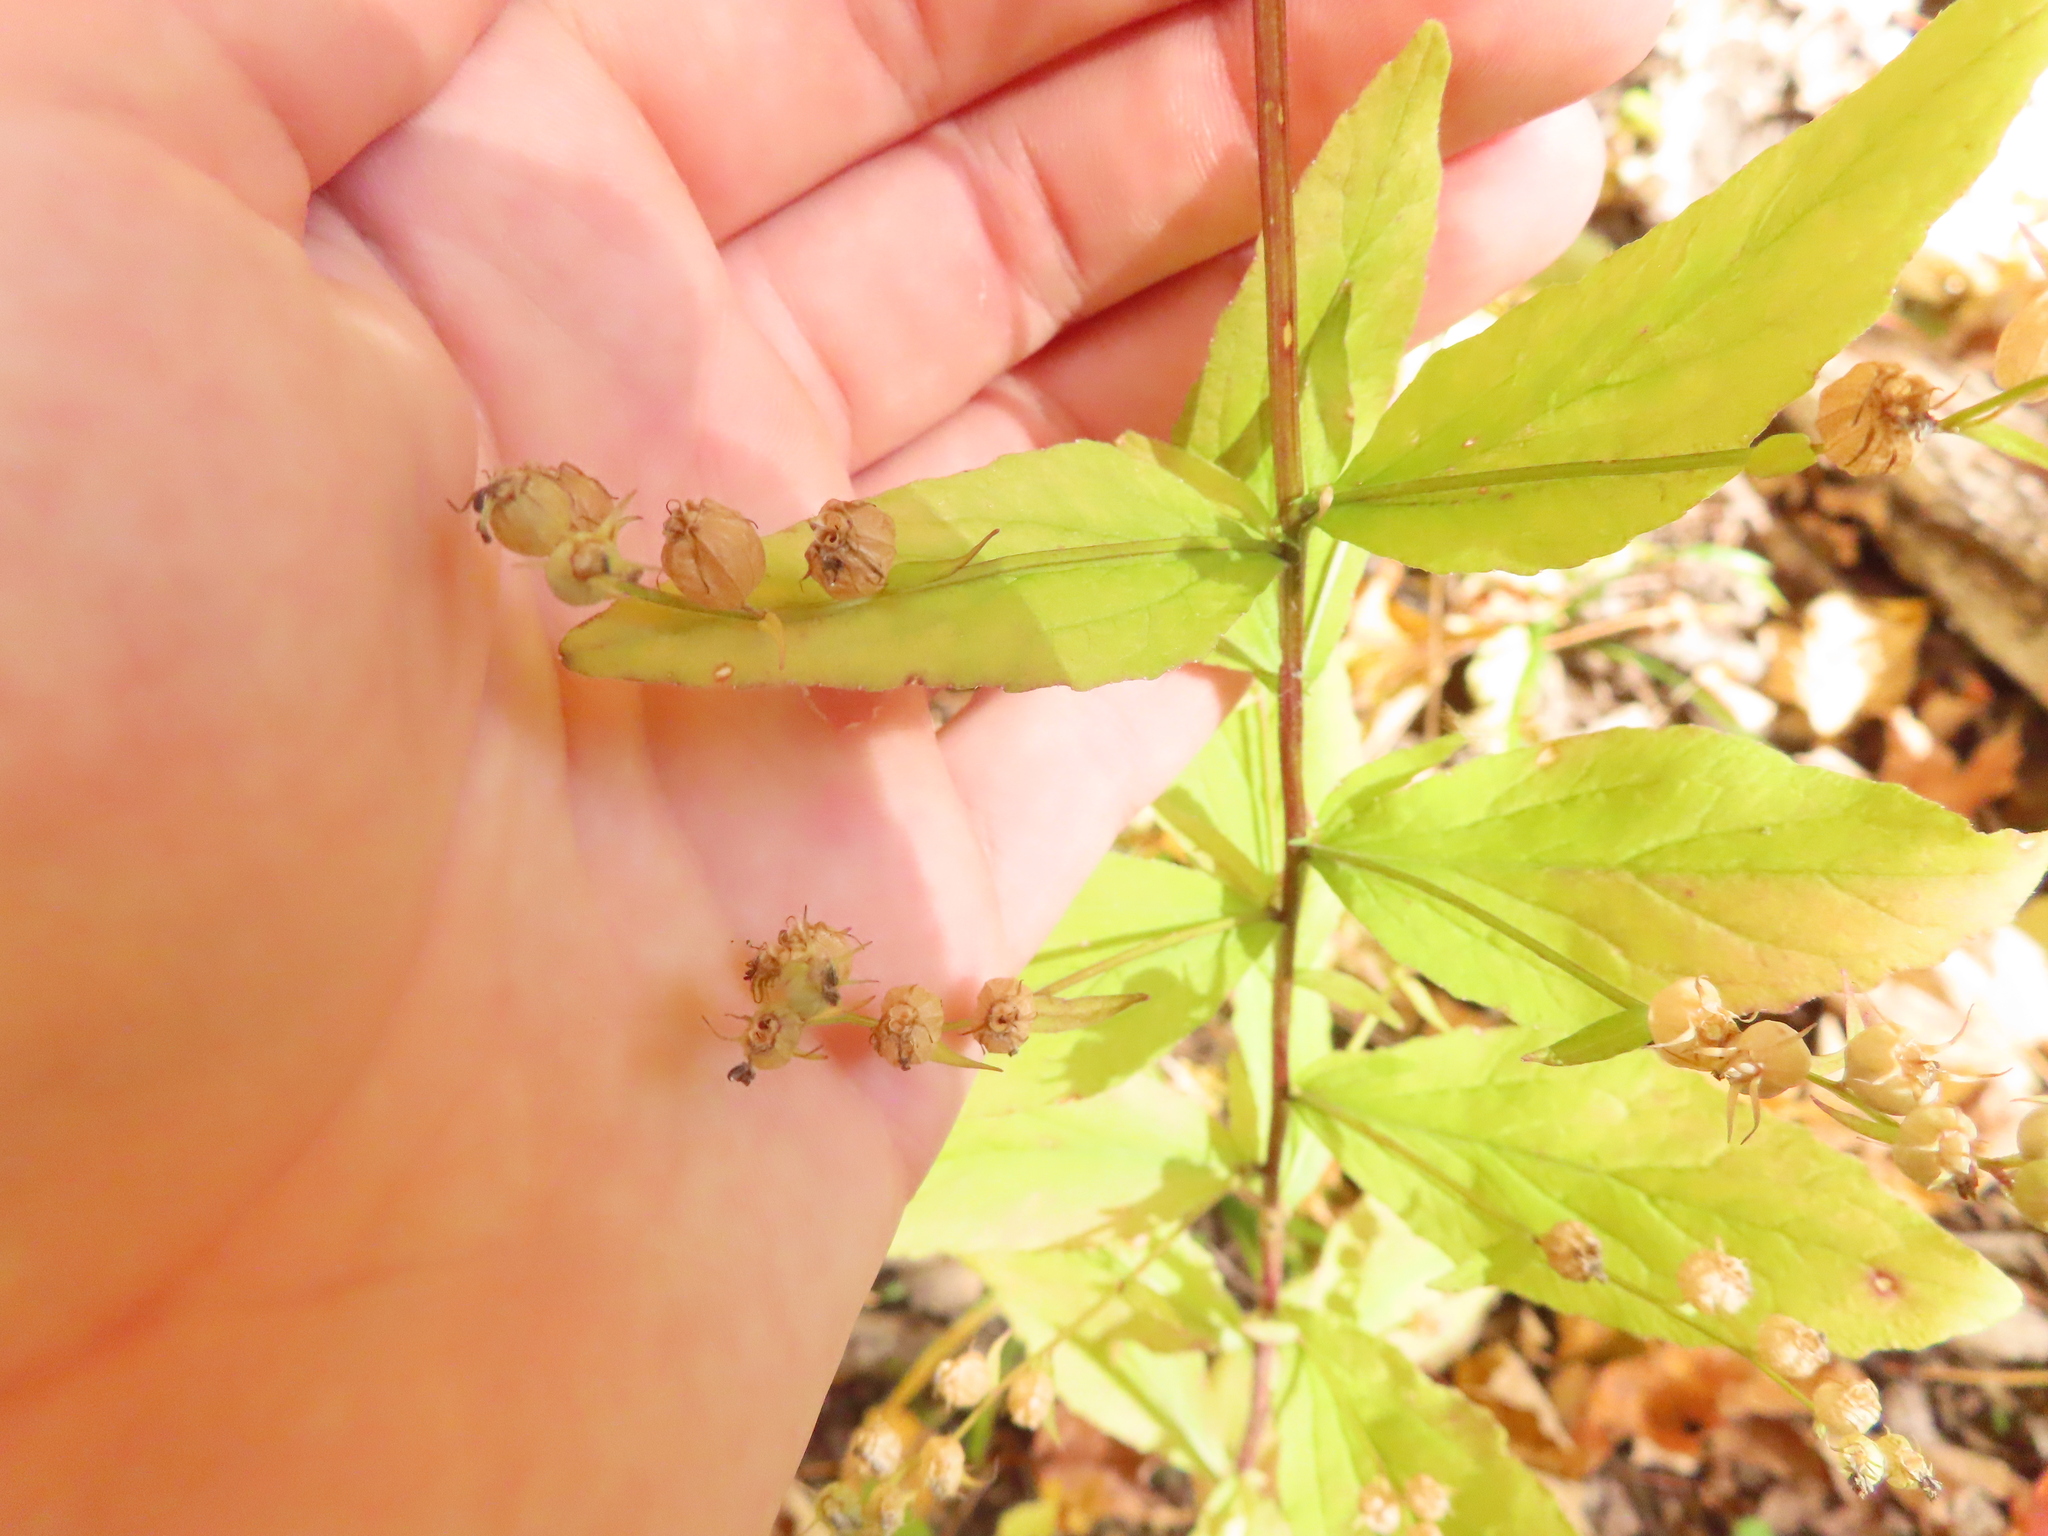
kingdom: Plantae
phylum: Tracheophyta
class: Magnoliopsida
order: Asterales
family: Campanulaceae
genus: Lobelia
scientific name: Lobelia inflata
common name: Indian tobacco
